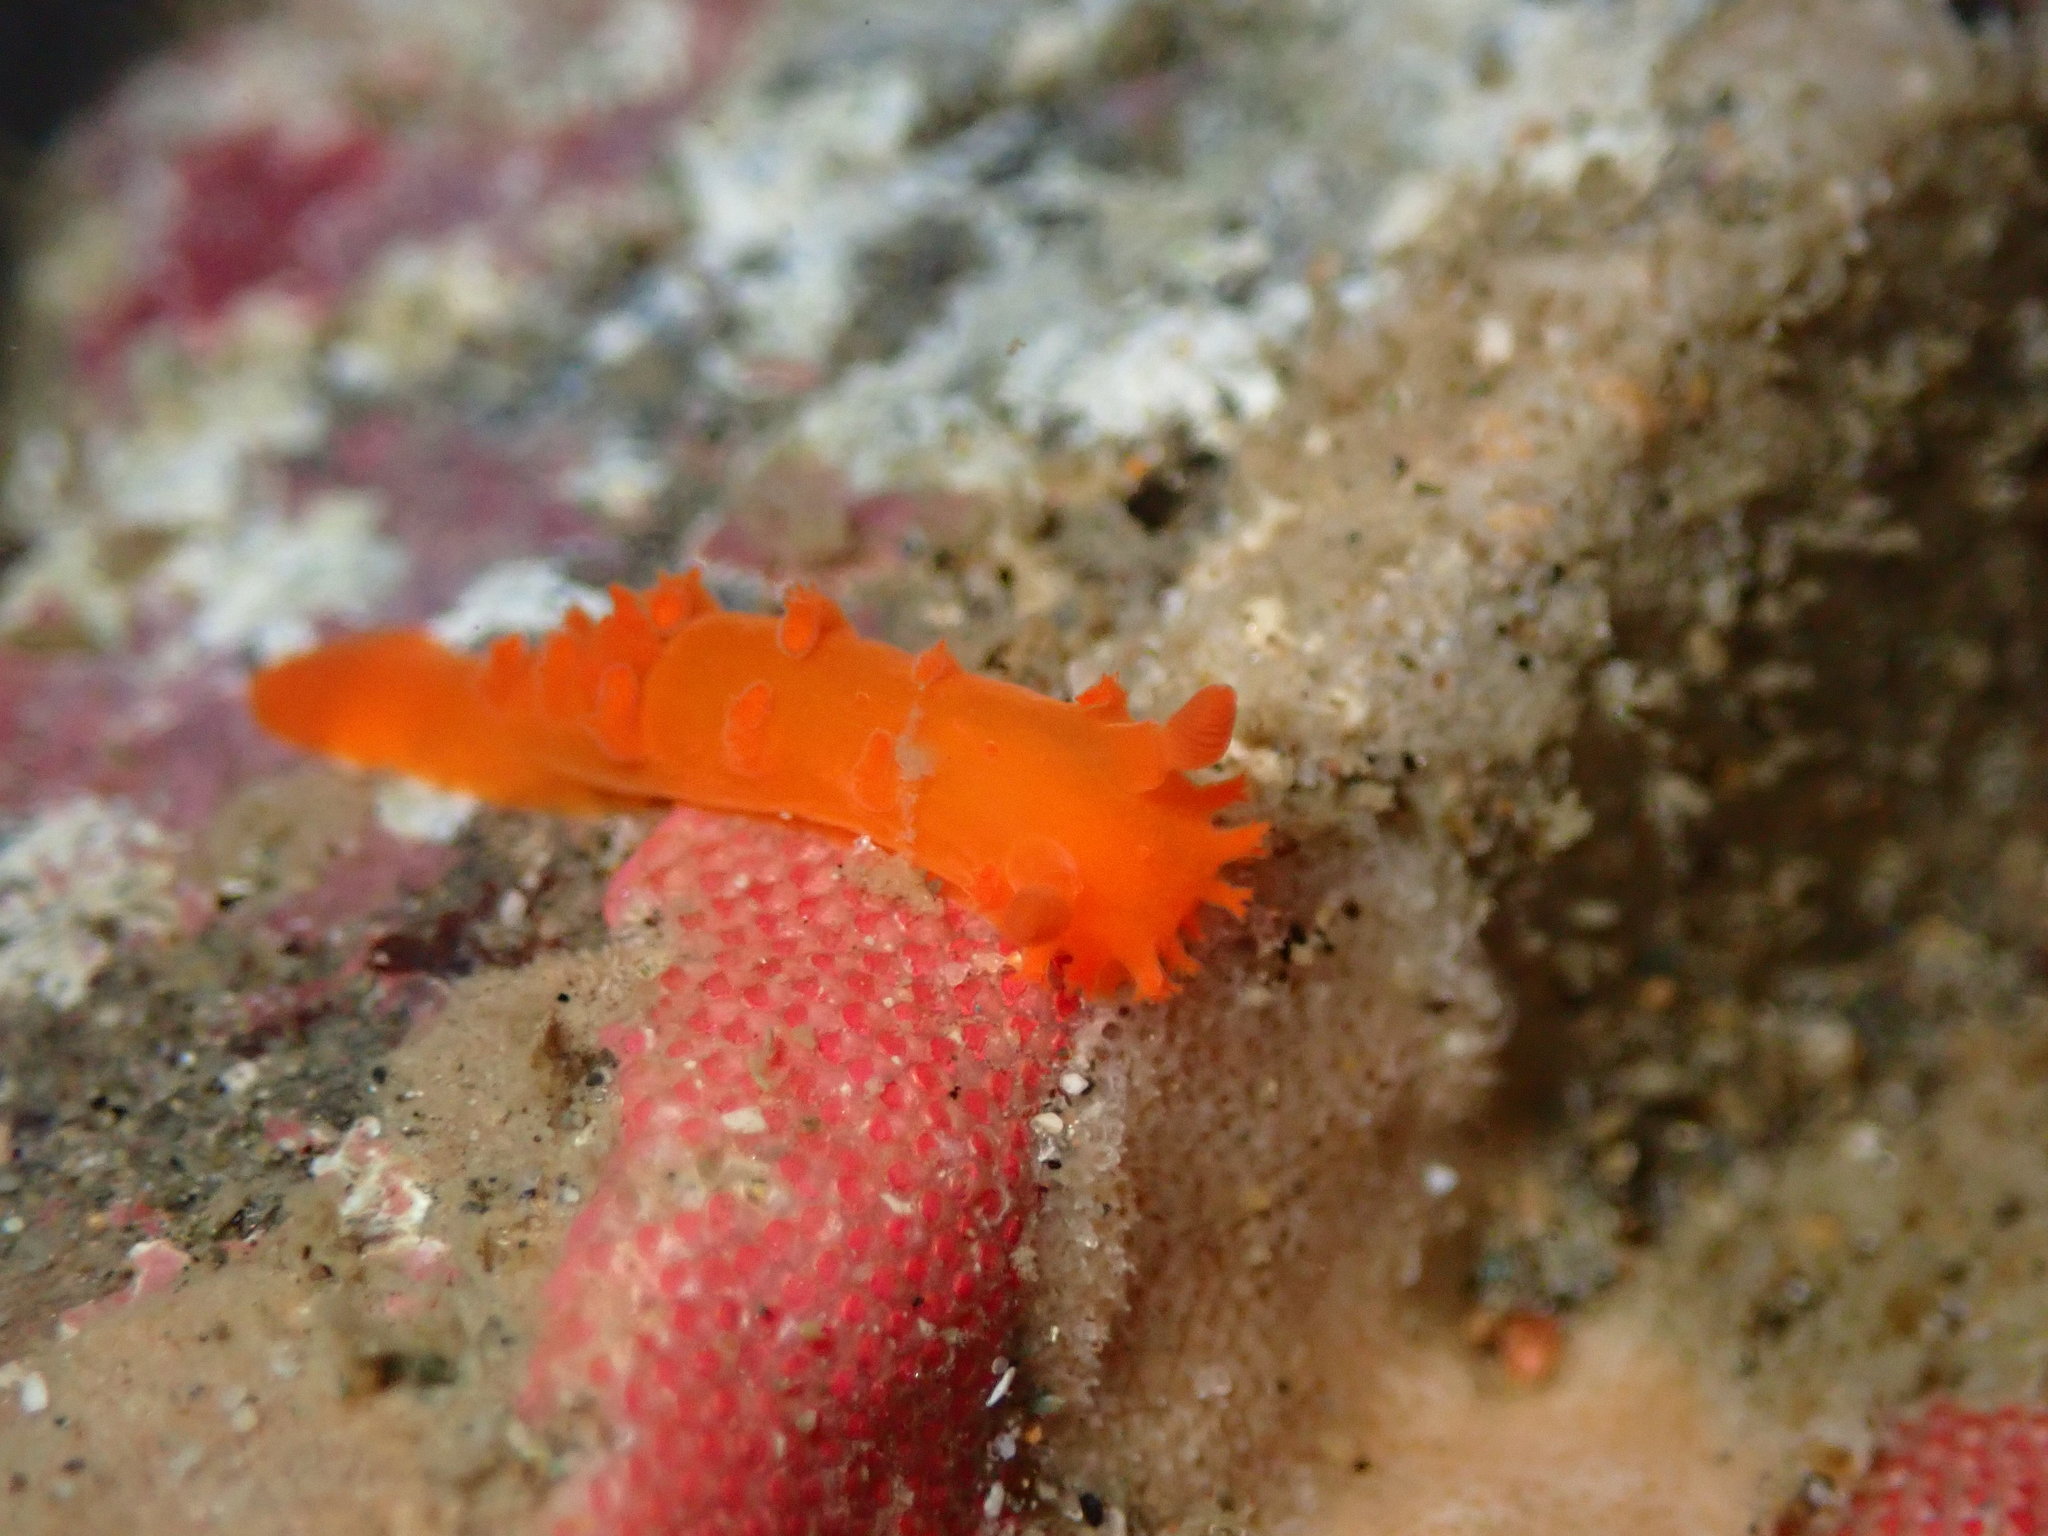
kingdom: Animalia
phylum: Mollusca
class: Gastropoda
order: Nudibranchia
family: Polyceridae
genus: Triopha
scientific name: Triopha maculata
